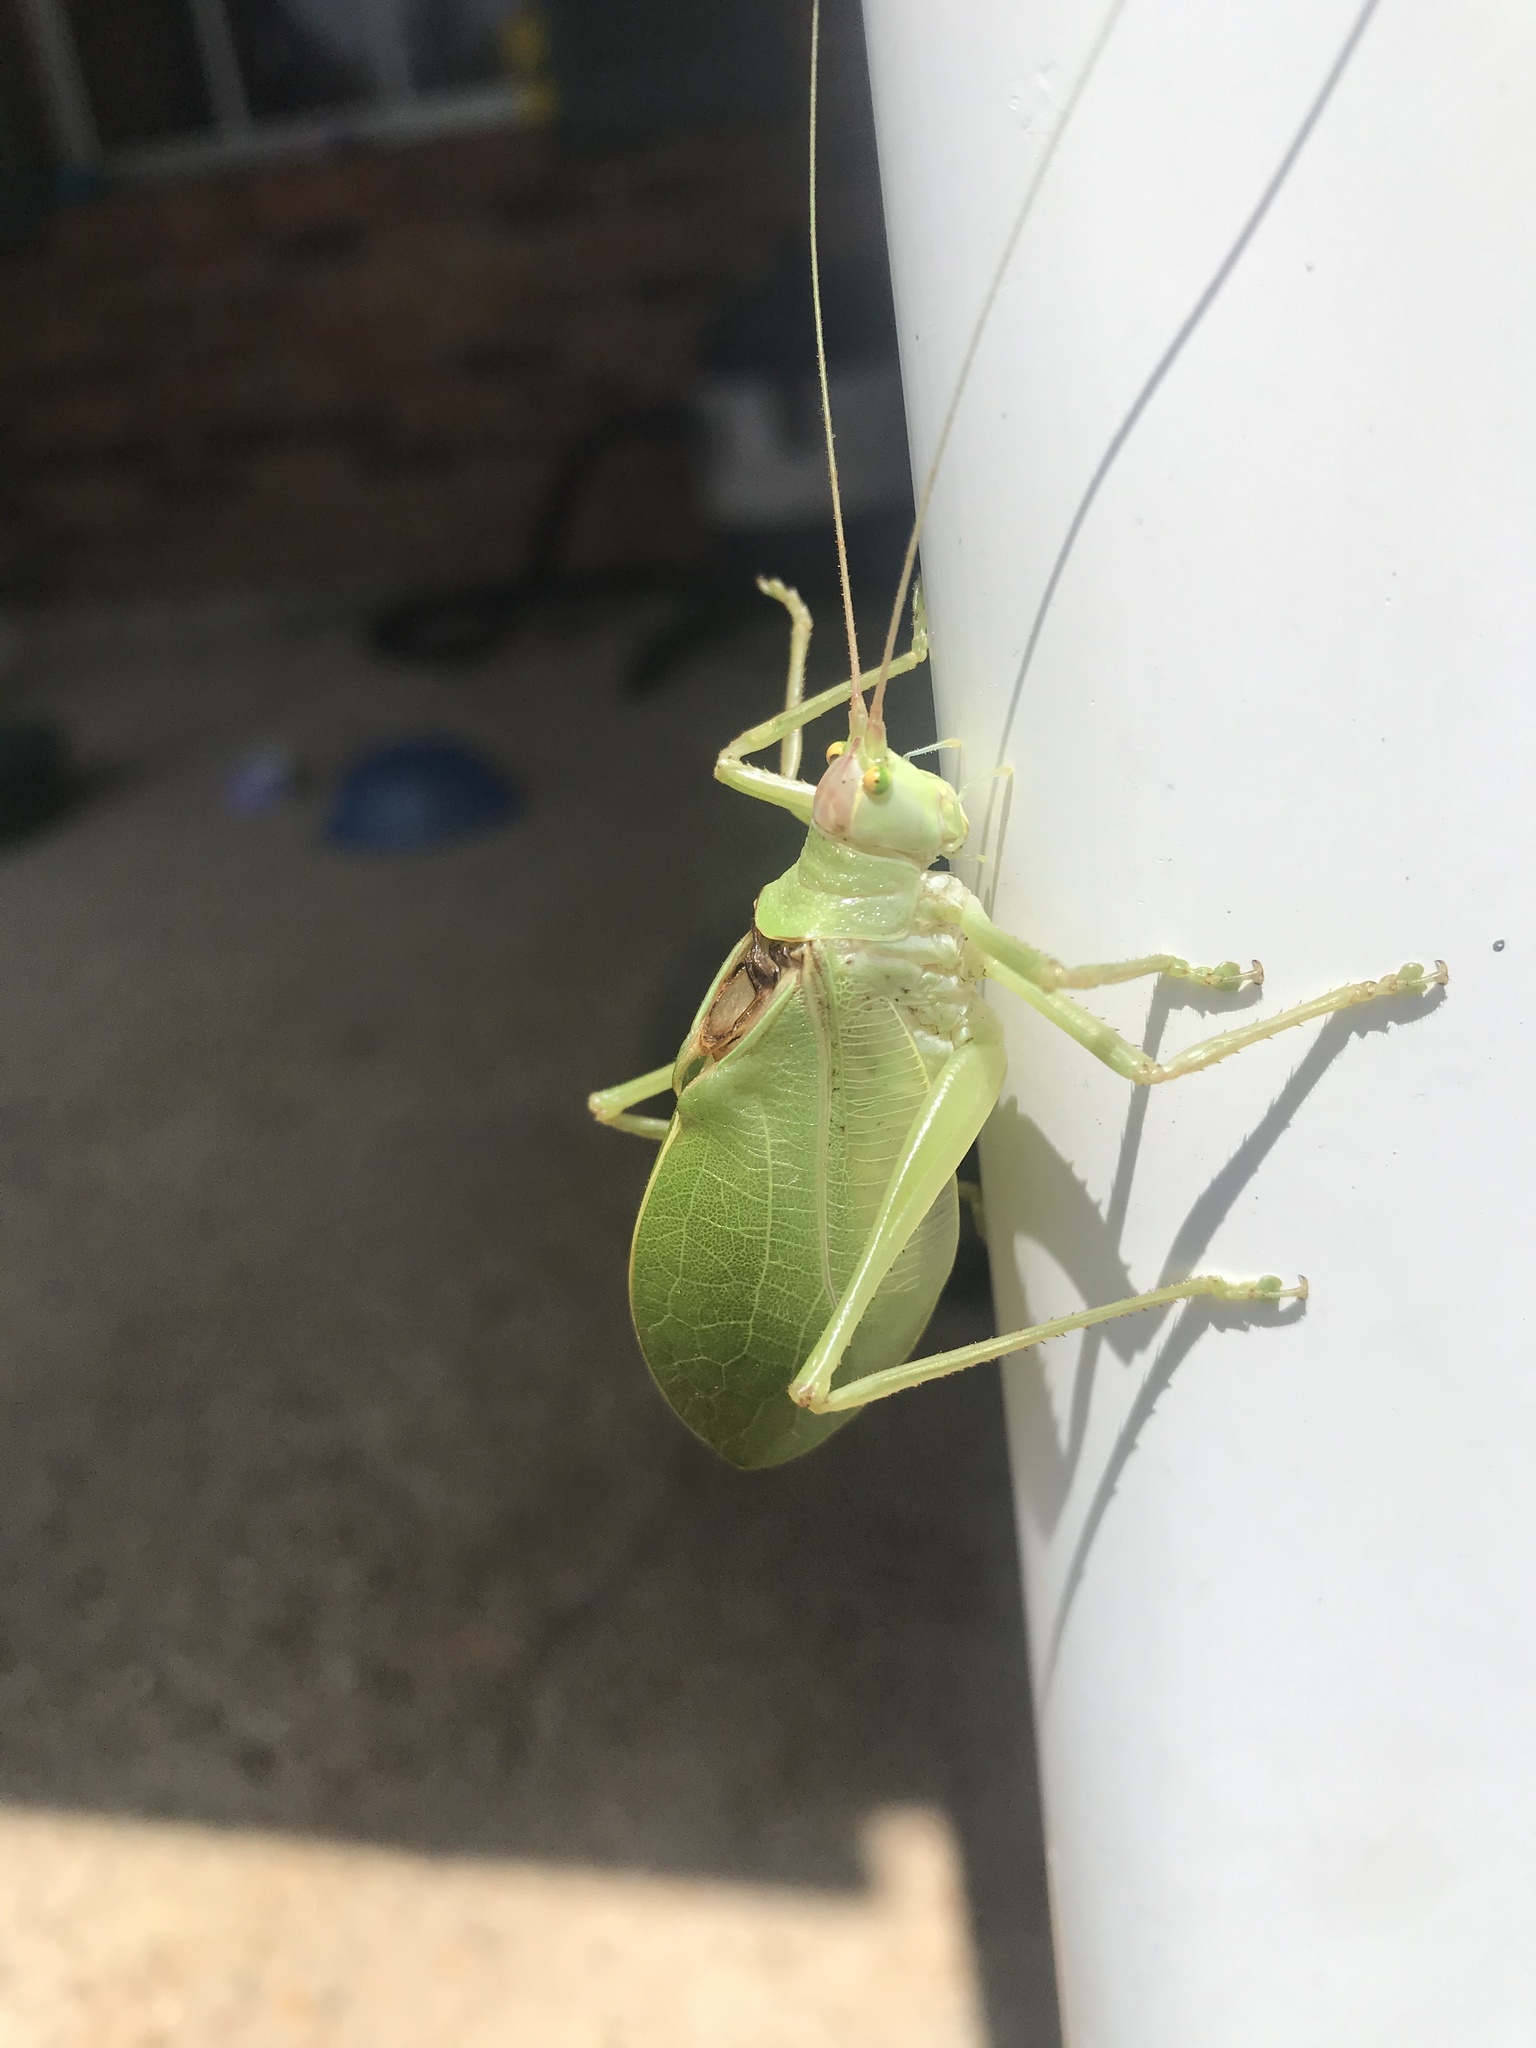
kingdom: Animalia
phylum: Arthropoda
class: Insecta
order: Orthoptera
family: Tettigoniidae
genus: Pterophylla
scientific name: Pterophylla camellifolia
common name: Common true katydid
